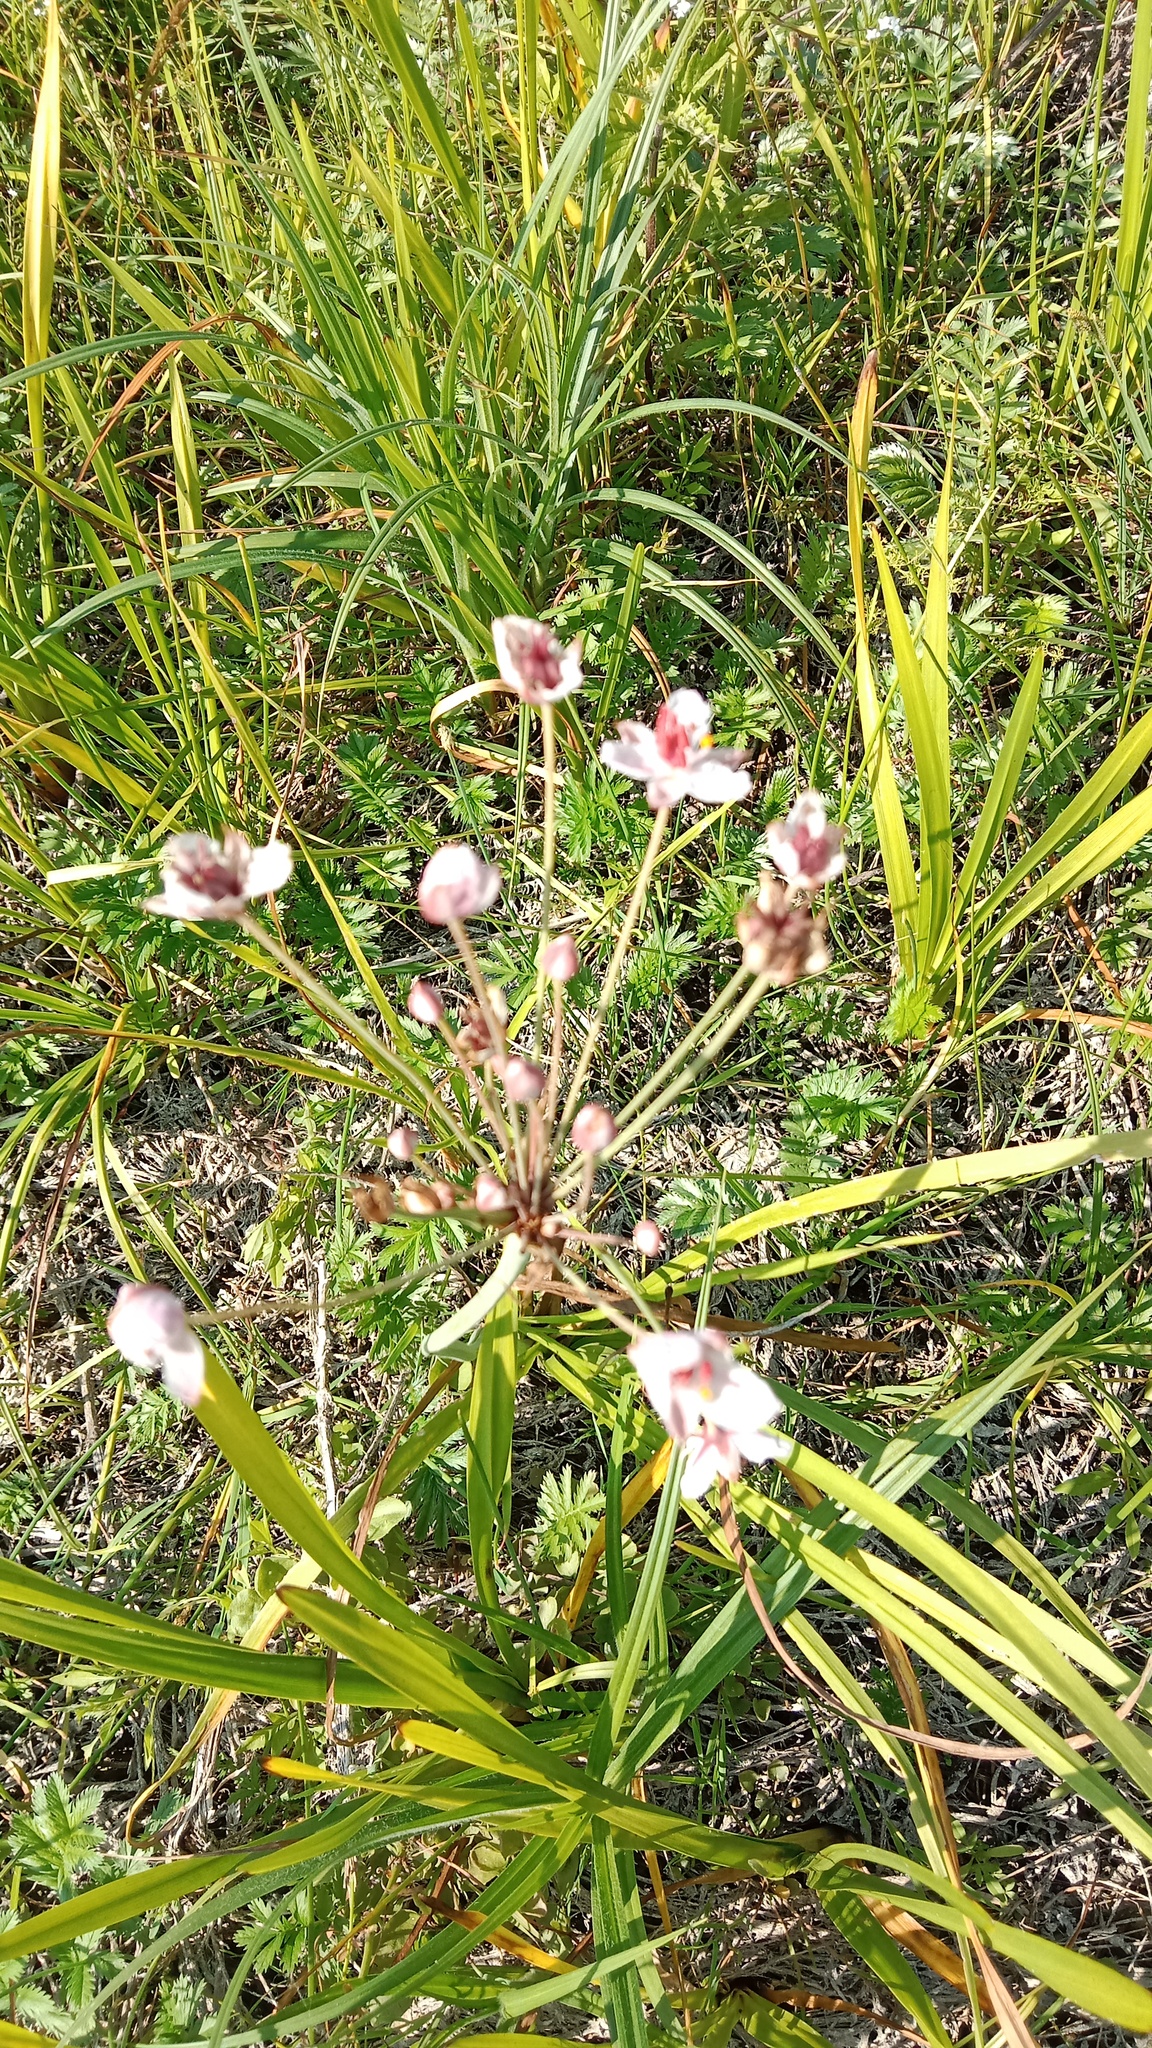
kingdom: Plantae
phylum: Tracheophyta
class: Liliopsida
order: Alismatales
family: Butomaceae
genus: Butomus
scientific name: Butomus umbellatus
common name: Flowering-rush
